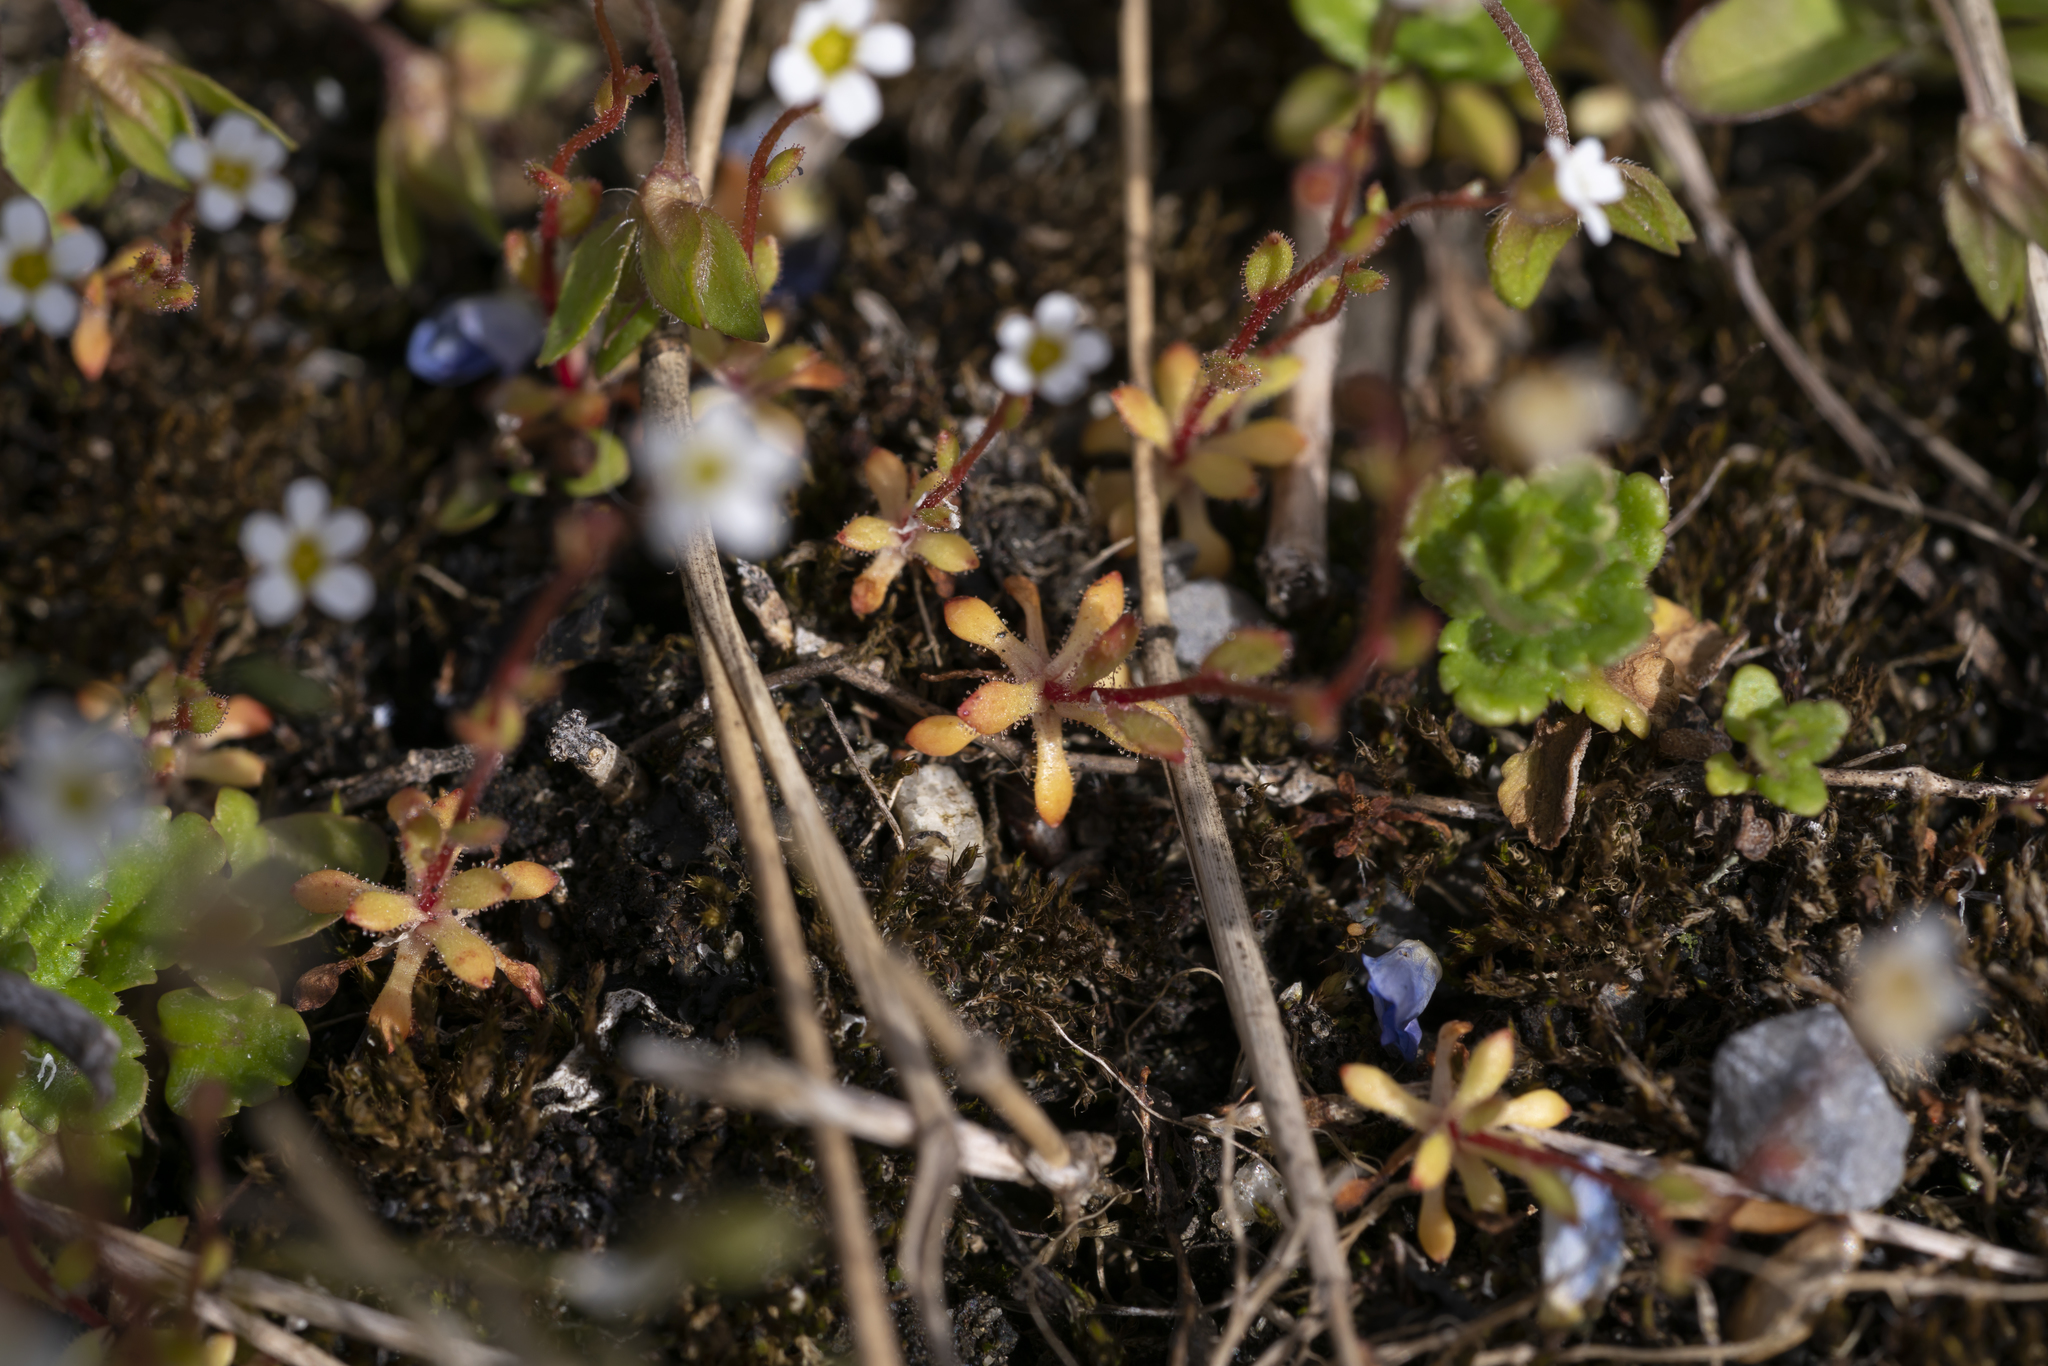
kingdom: Plantae
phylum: Tracheophyta
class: Magnoliopsida
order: Saxifragales
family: Saxifragaceae
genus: Saxifraga
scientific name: Saxifraga tridactylites
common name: Rue-leaved saxifrage
